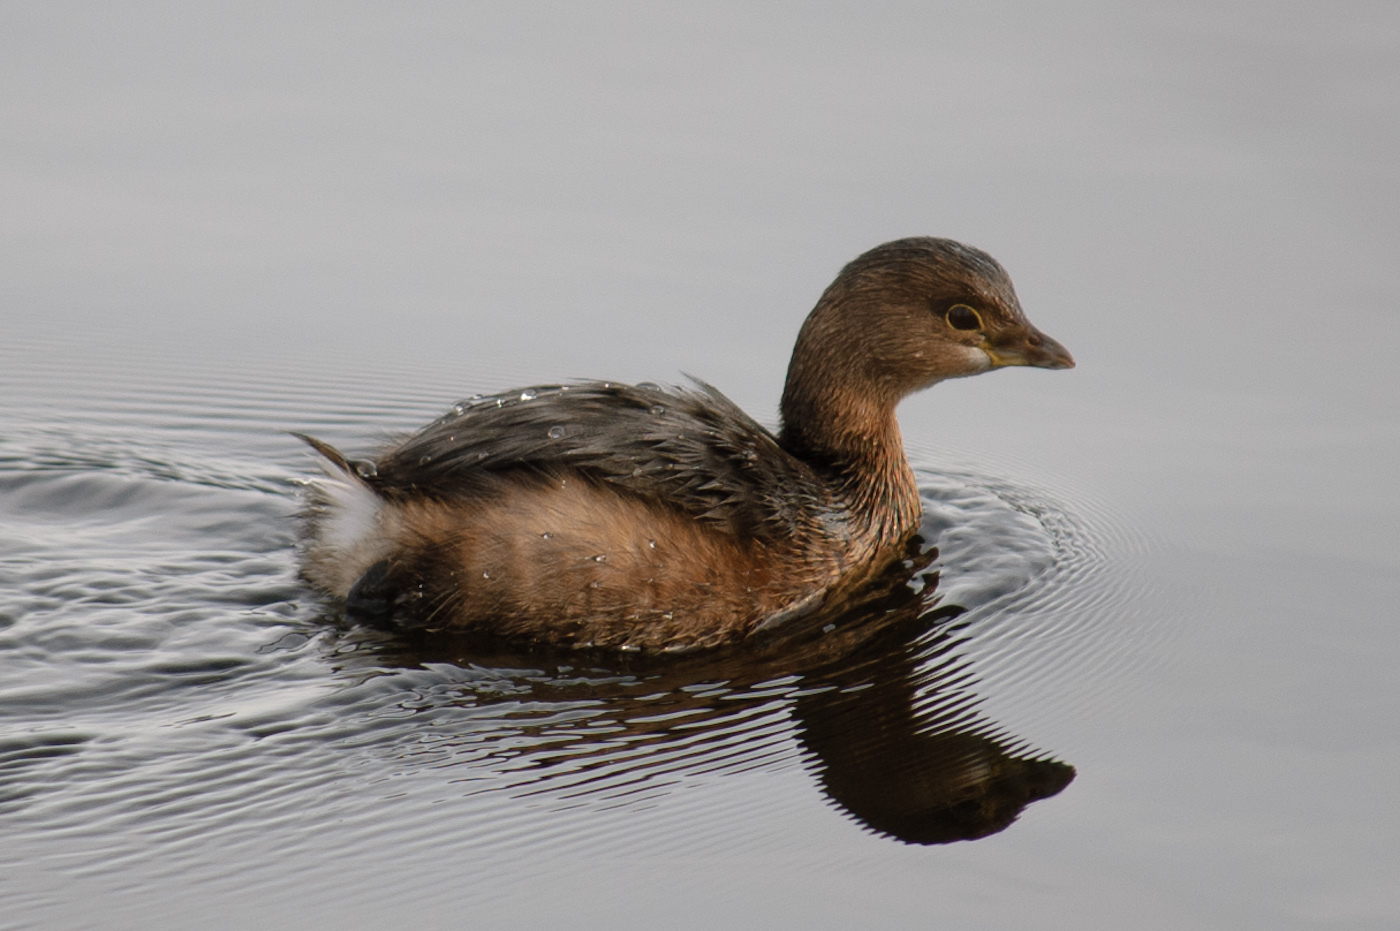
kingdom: Animalia
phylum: Chordata
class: Aves
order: Podicipediformes
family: Podicipedidae
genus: Podilymbus
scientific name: Podilymbus podiceps
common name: Pied-billed grebe
